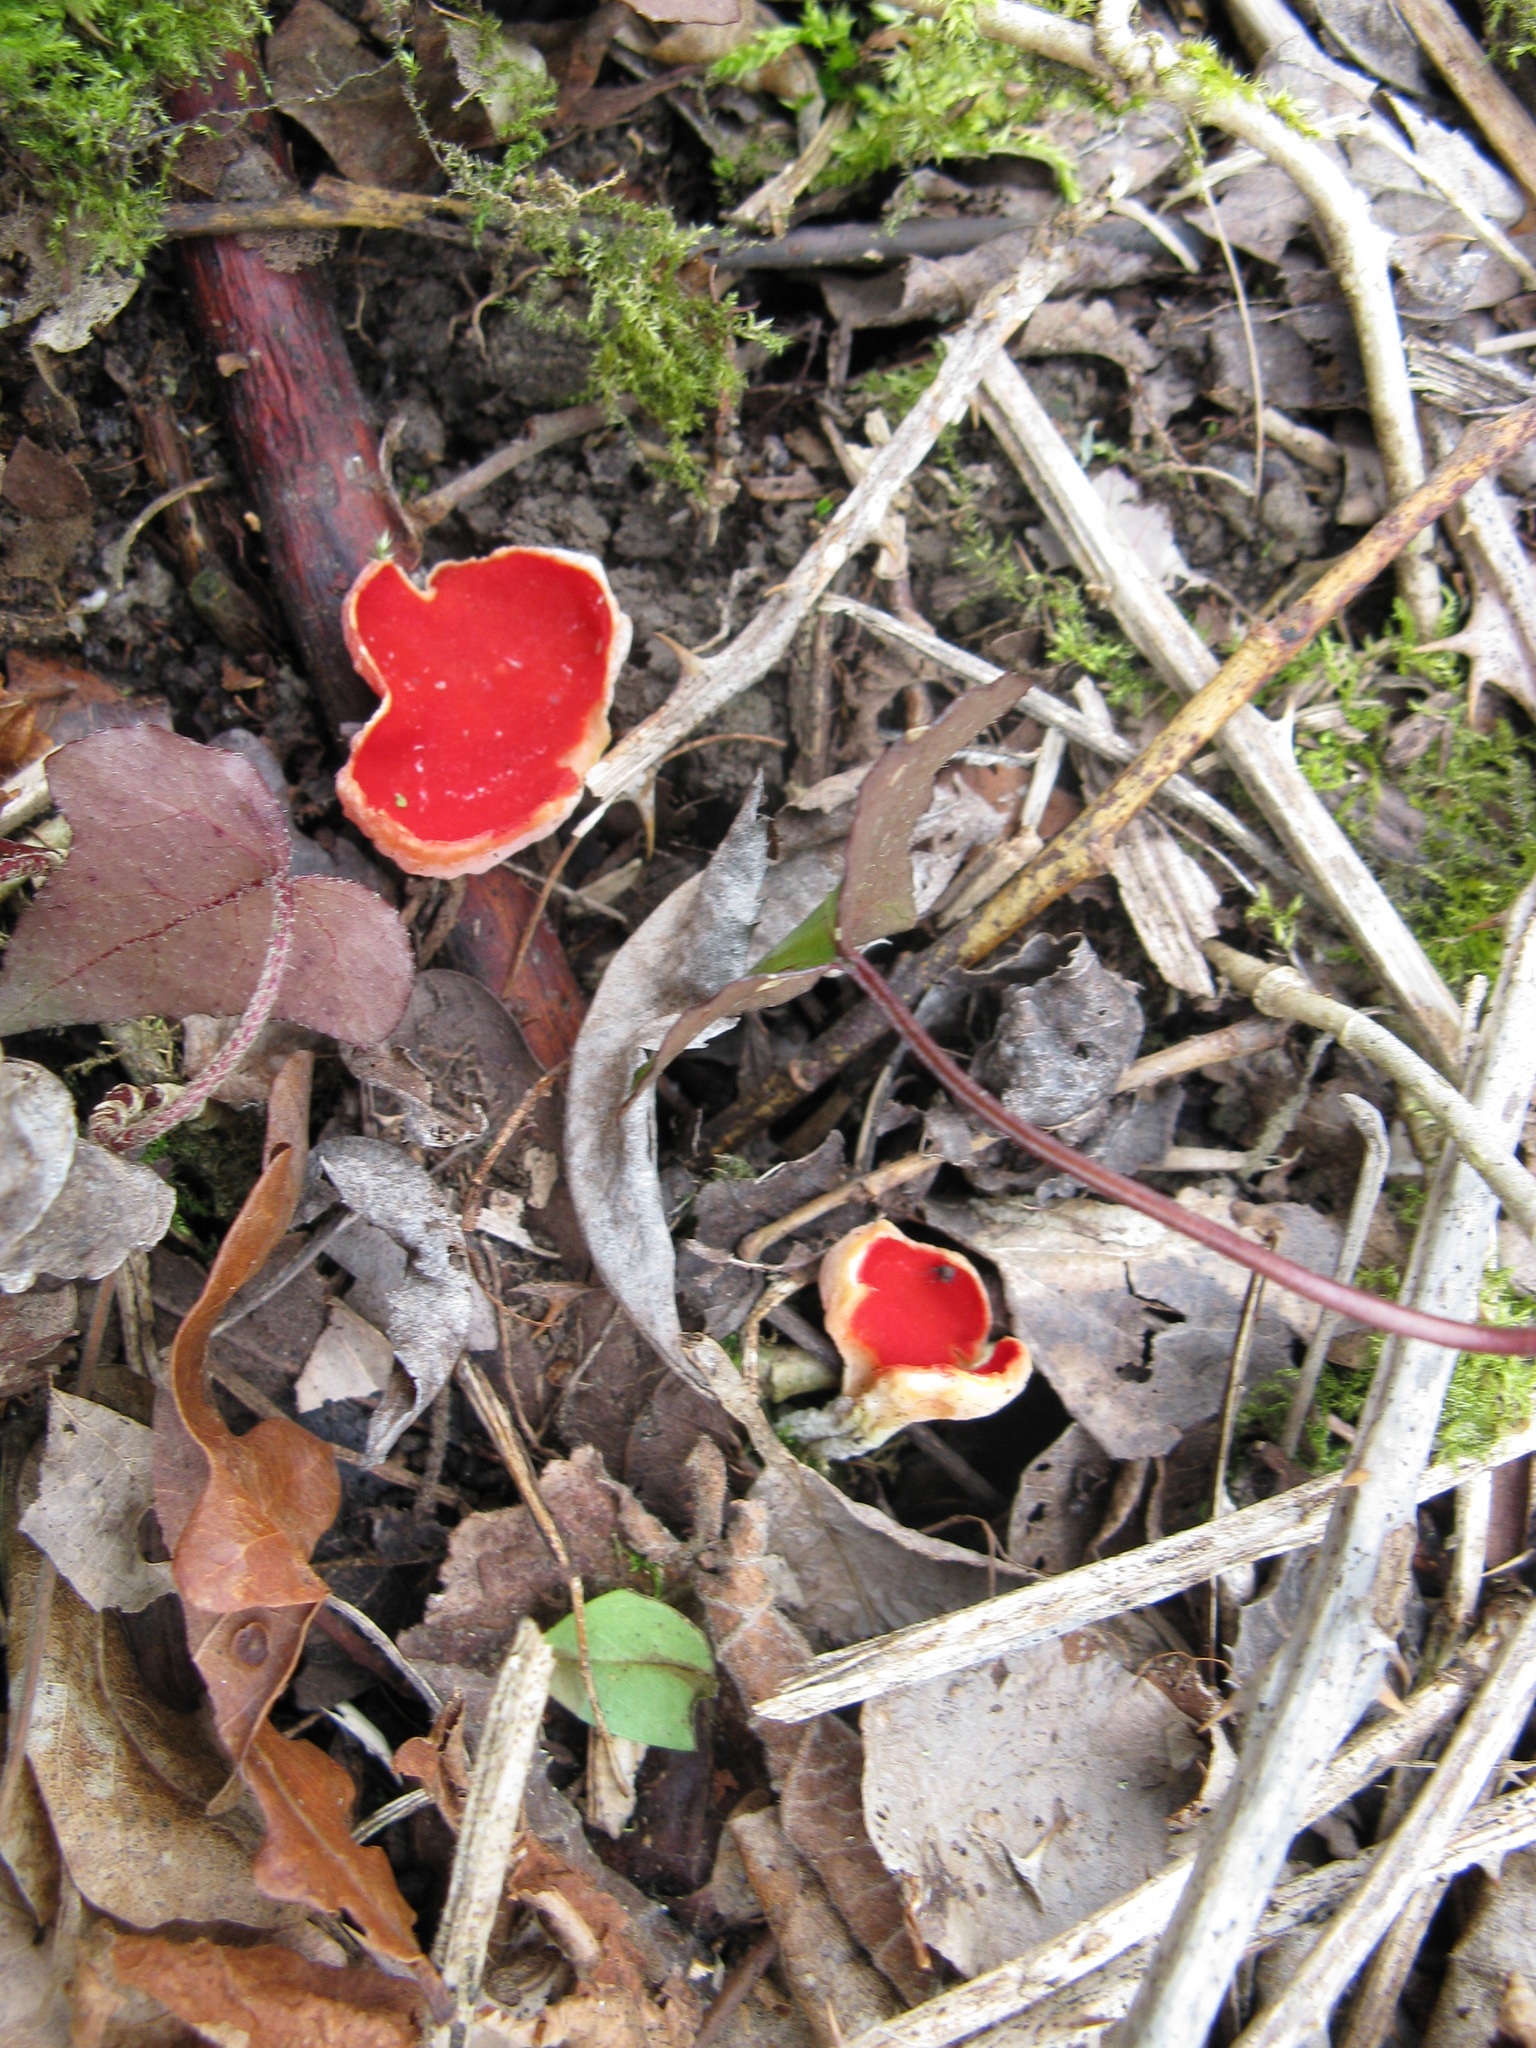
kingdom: Fungi
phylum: Ascomycota
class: Pezizomycetes
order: Pezizales
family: Sarcoscyphaceae
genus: Sarcoscypha
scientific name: Sarcoscypha
